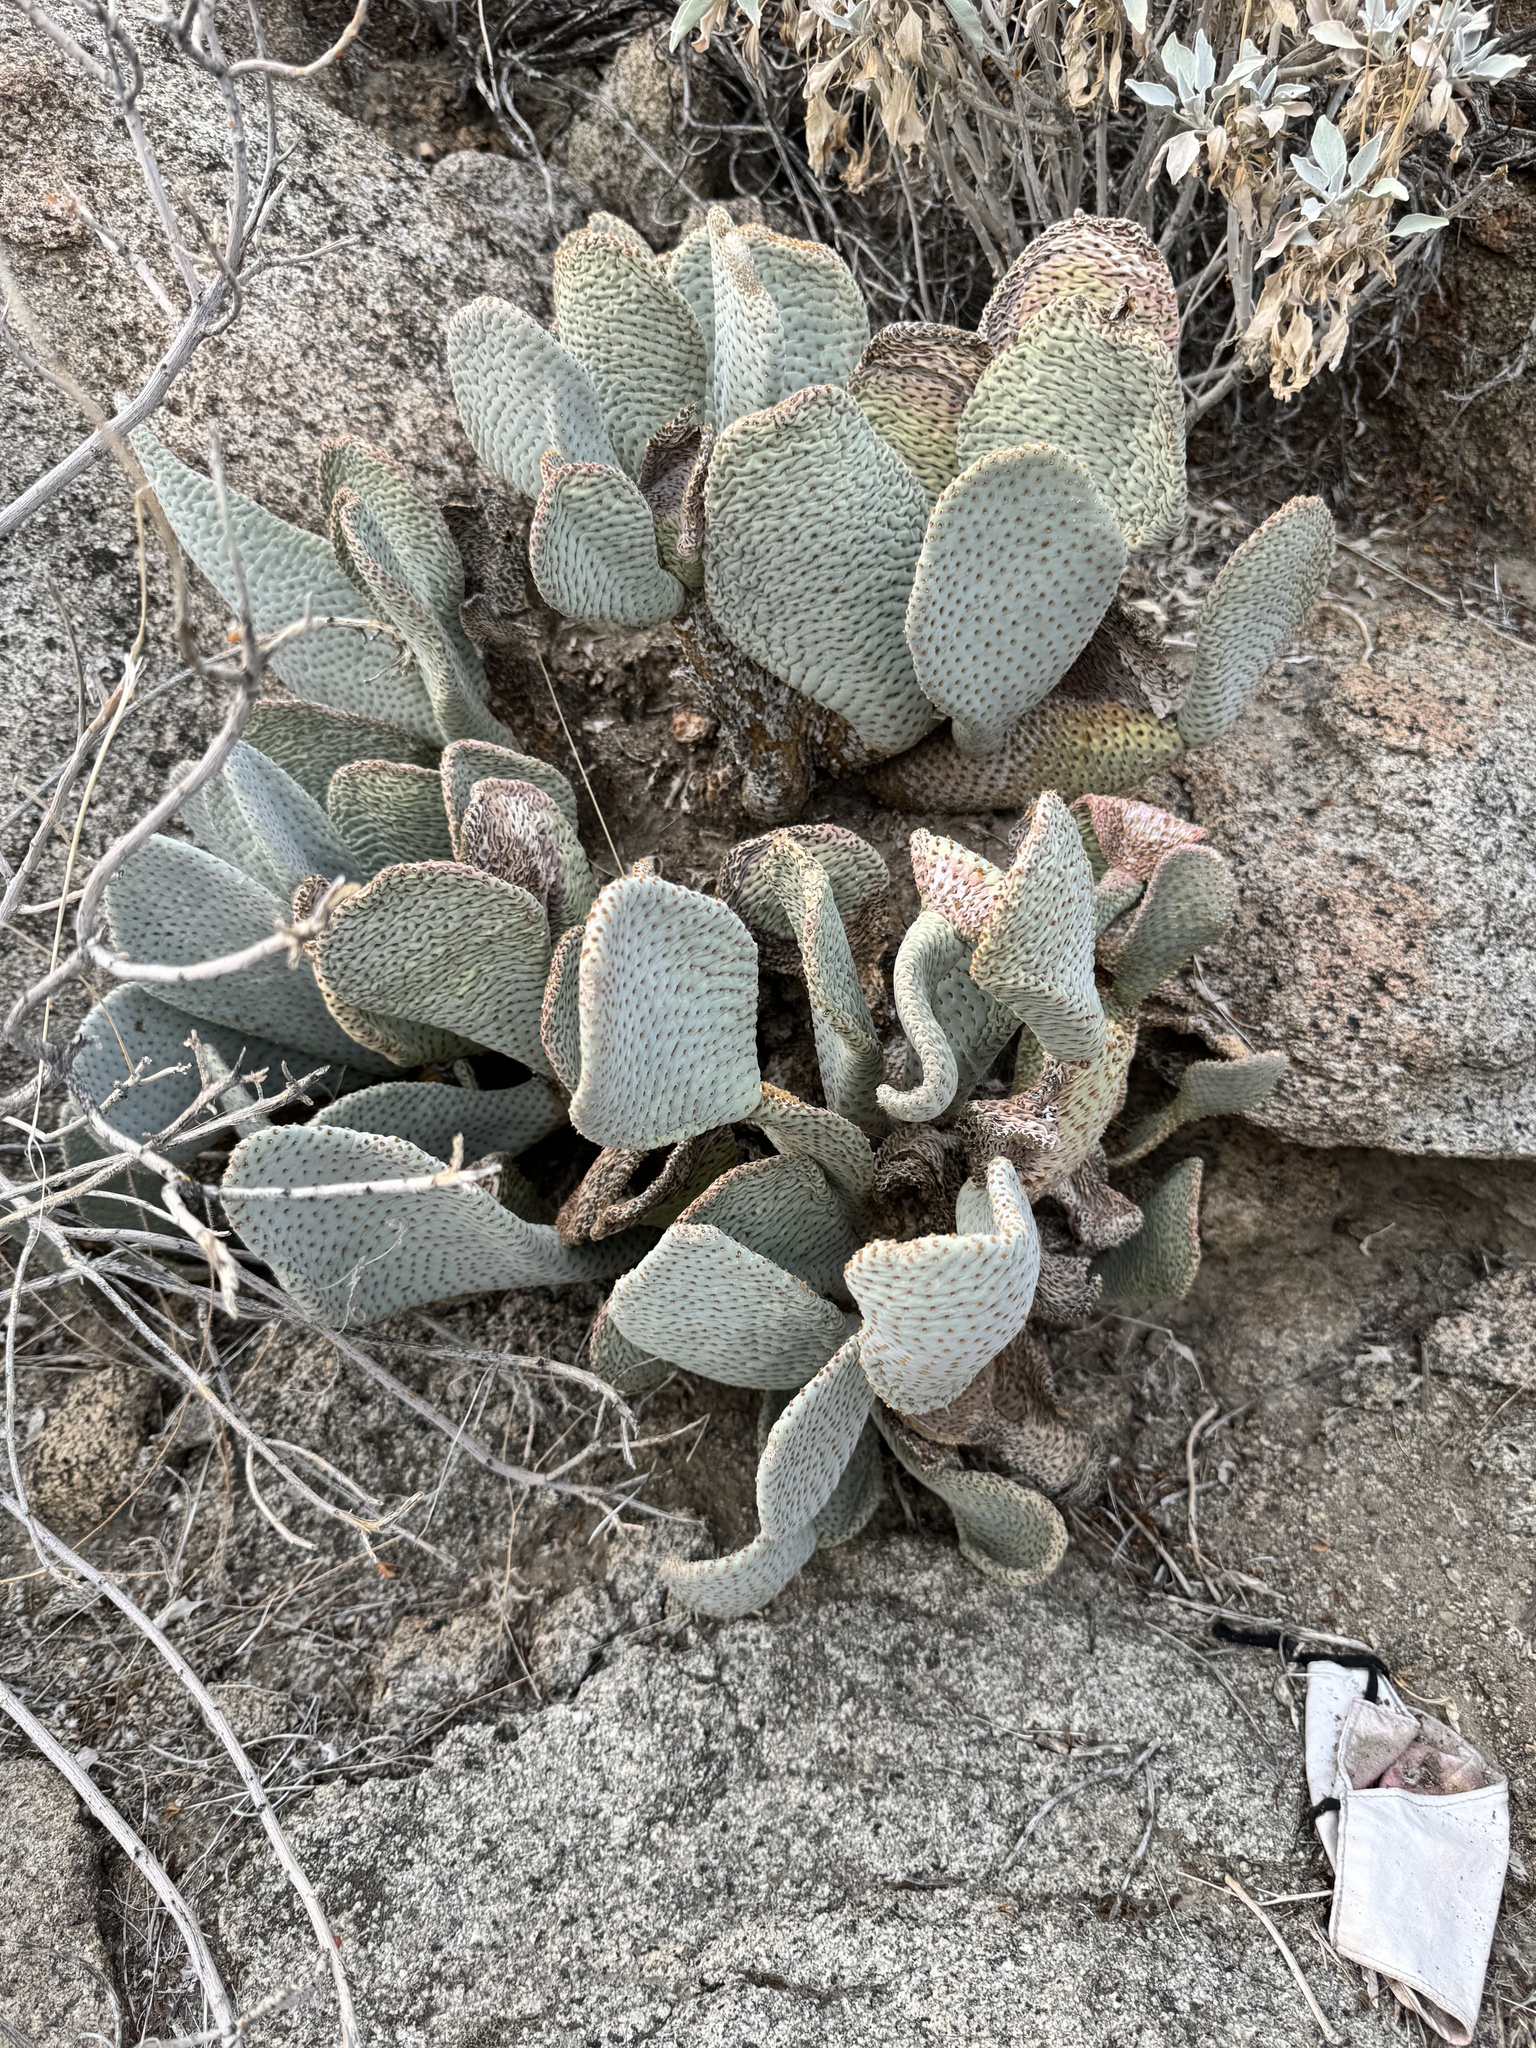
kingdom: Plantae
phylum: Tracheophyta
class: Magnoliopsida
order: Caryophyllales
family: Cactaceae
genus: Opuntia
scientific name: Opuntia basilaris
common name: Beavertail prickly-pear
